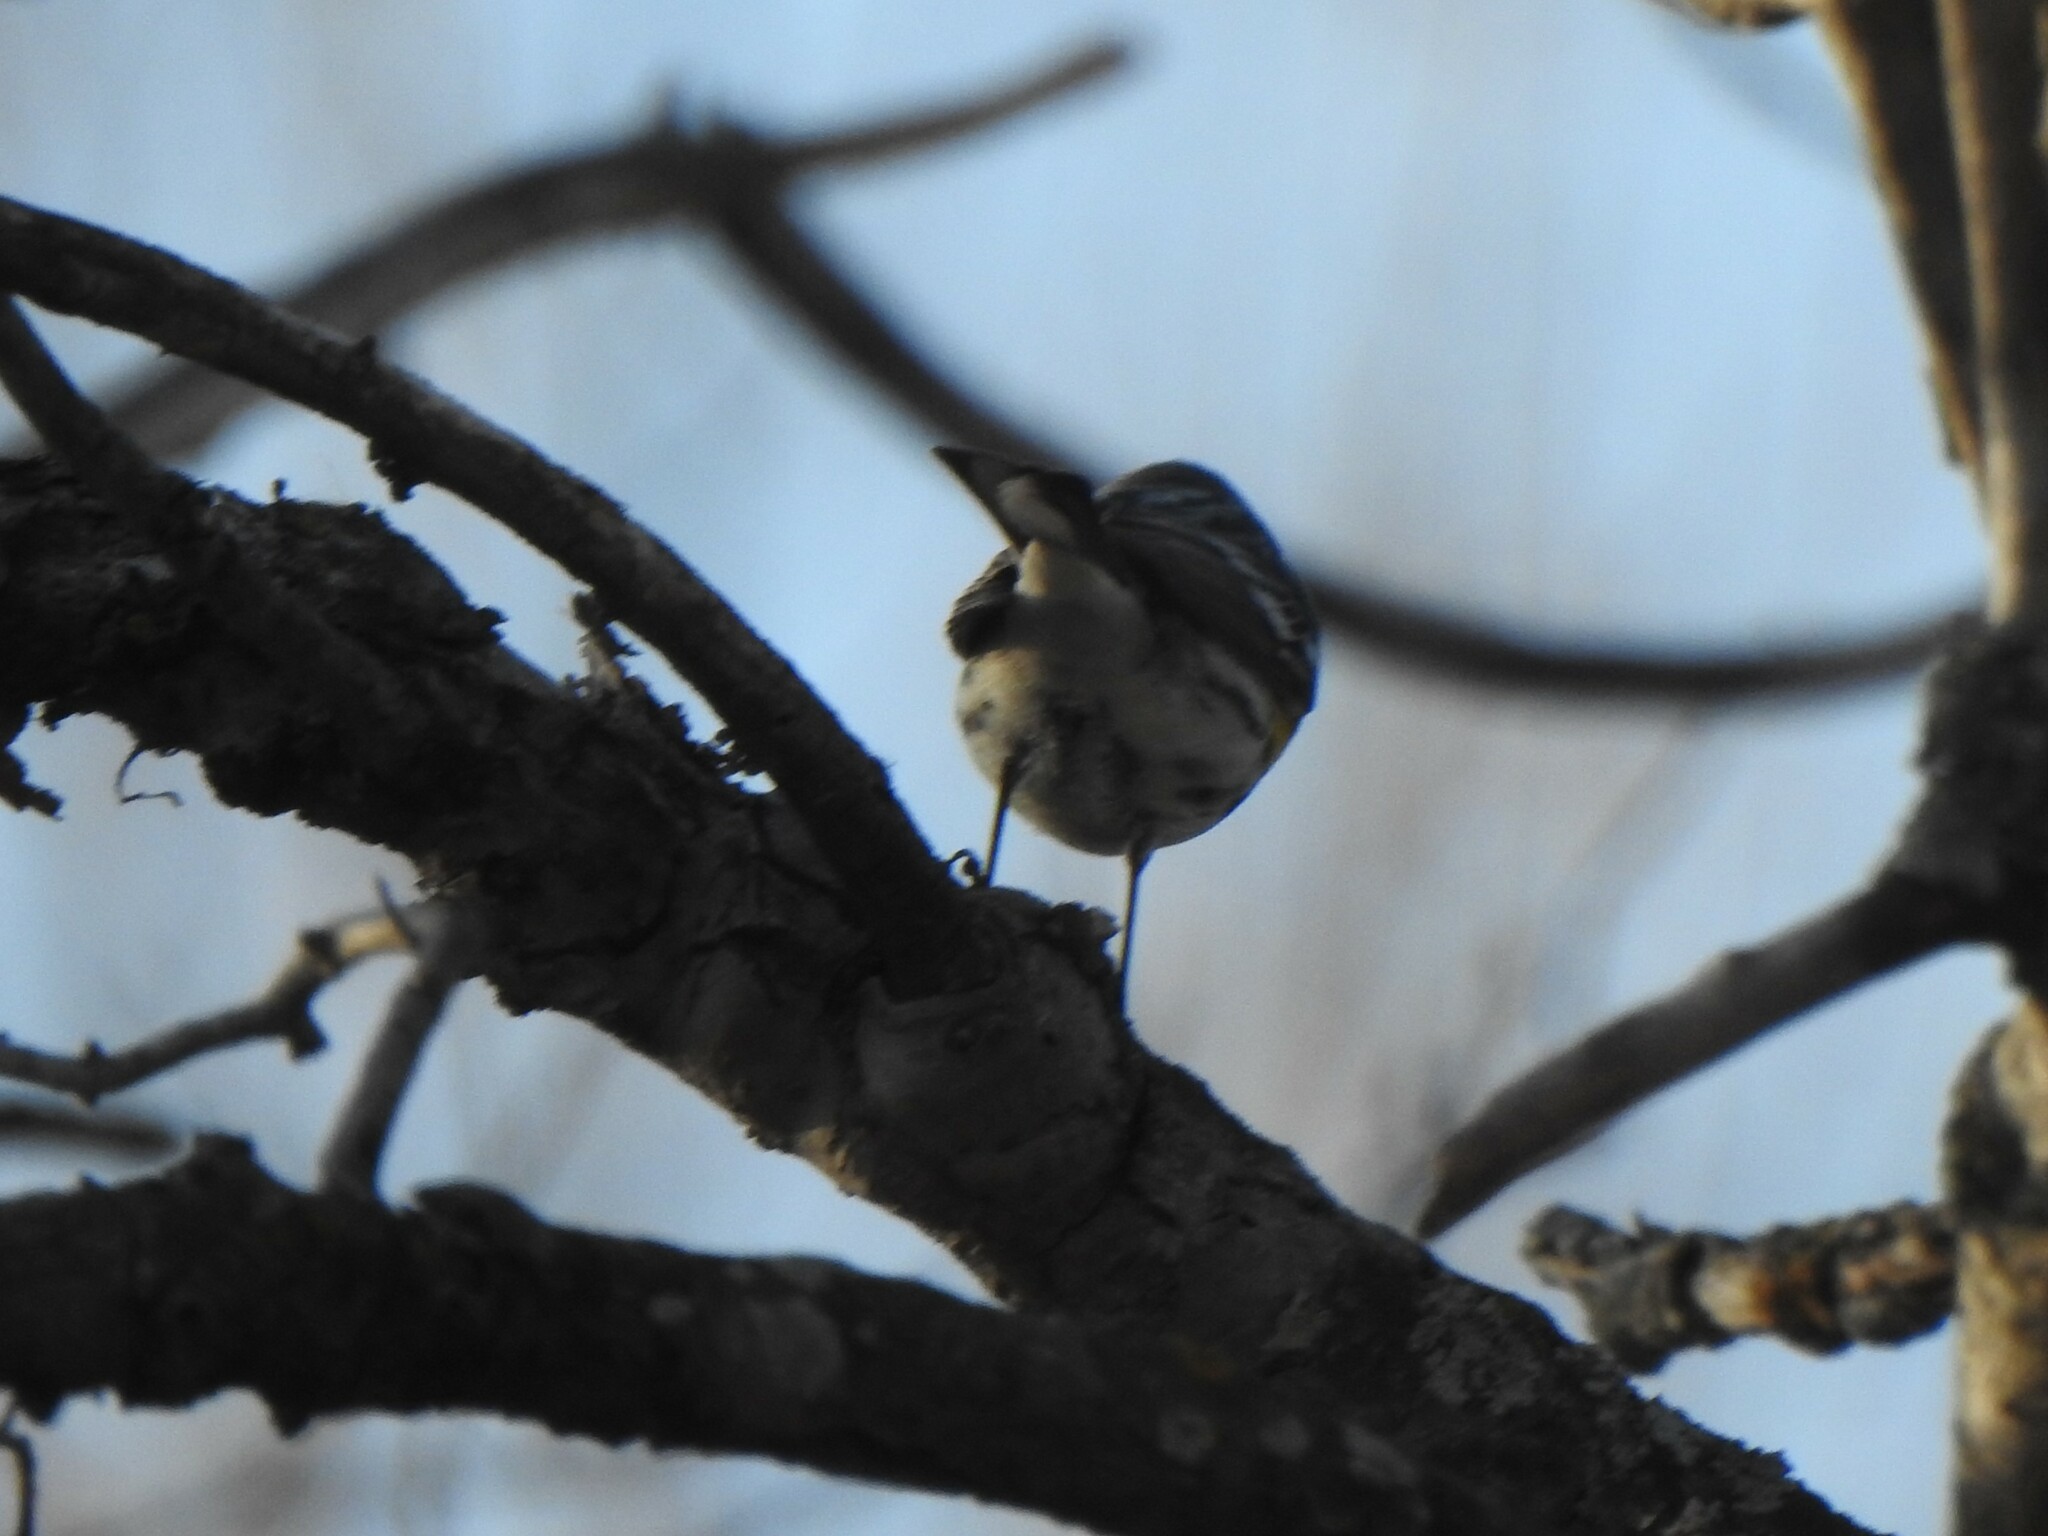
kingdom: Animalia
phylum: Chordata
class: Aves
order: Passeriformes
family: Parulidae
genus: Setophaga
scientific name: Setophaga coronata
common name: Myrtle warbler
